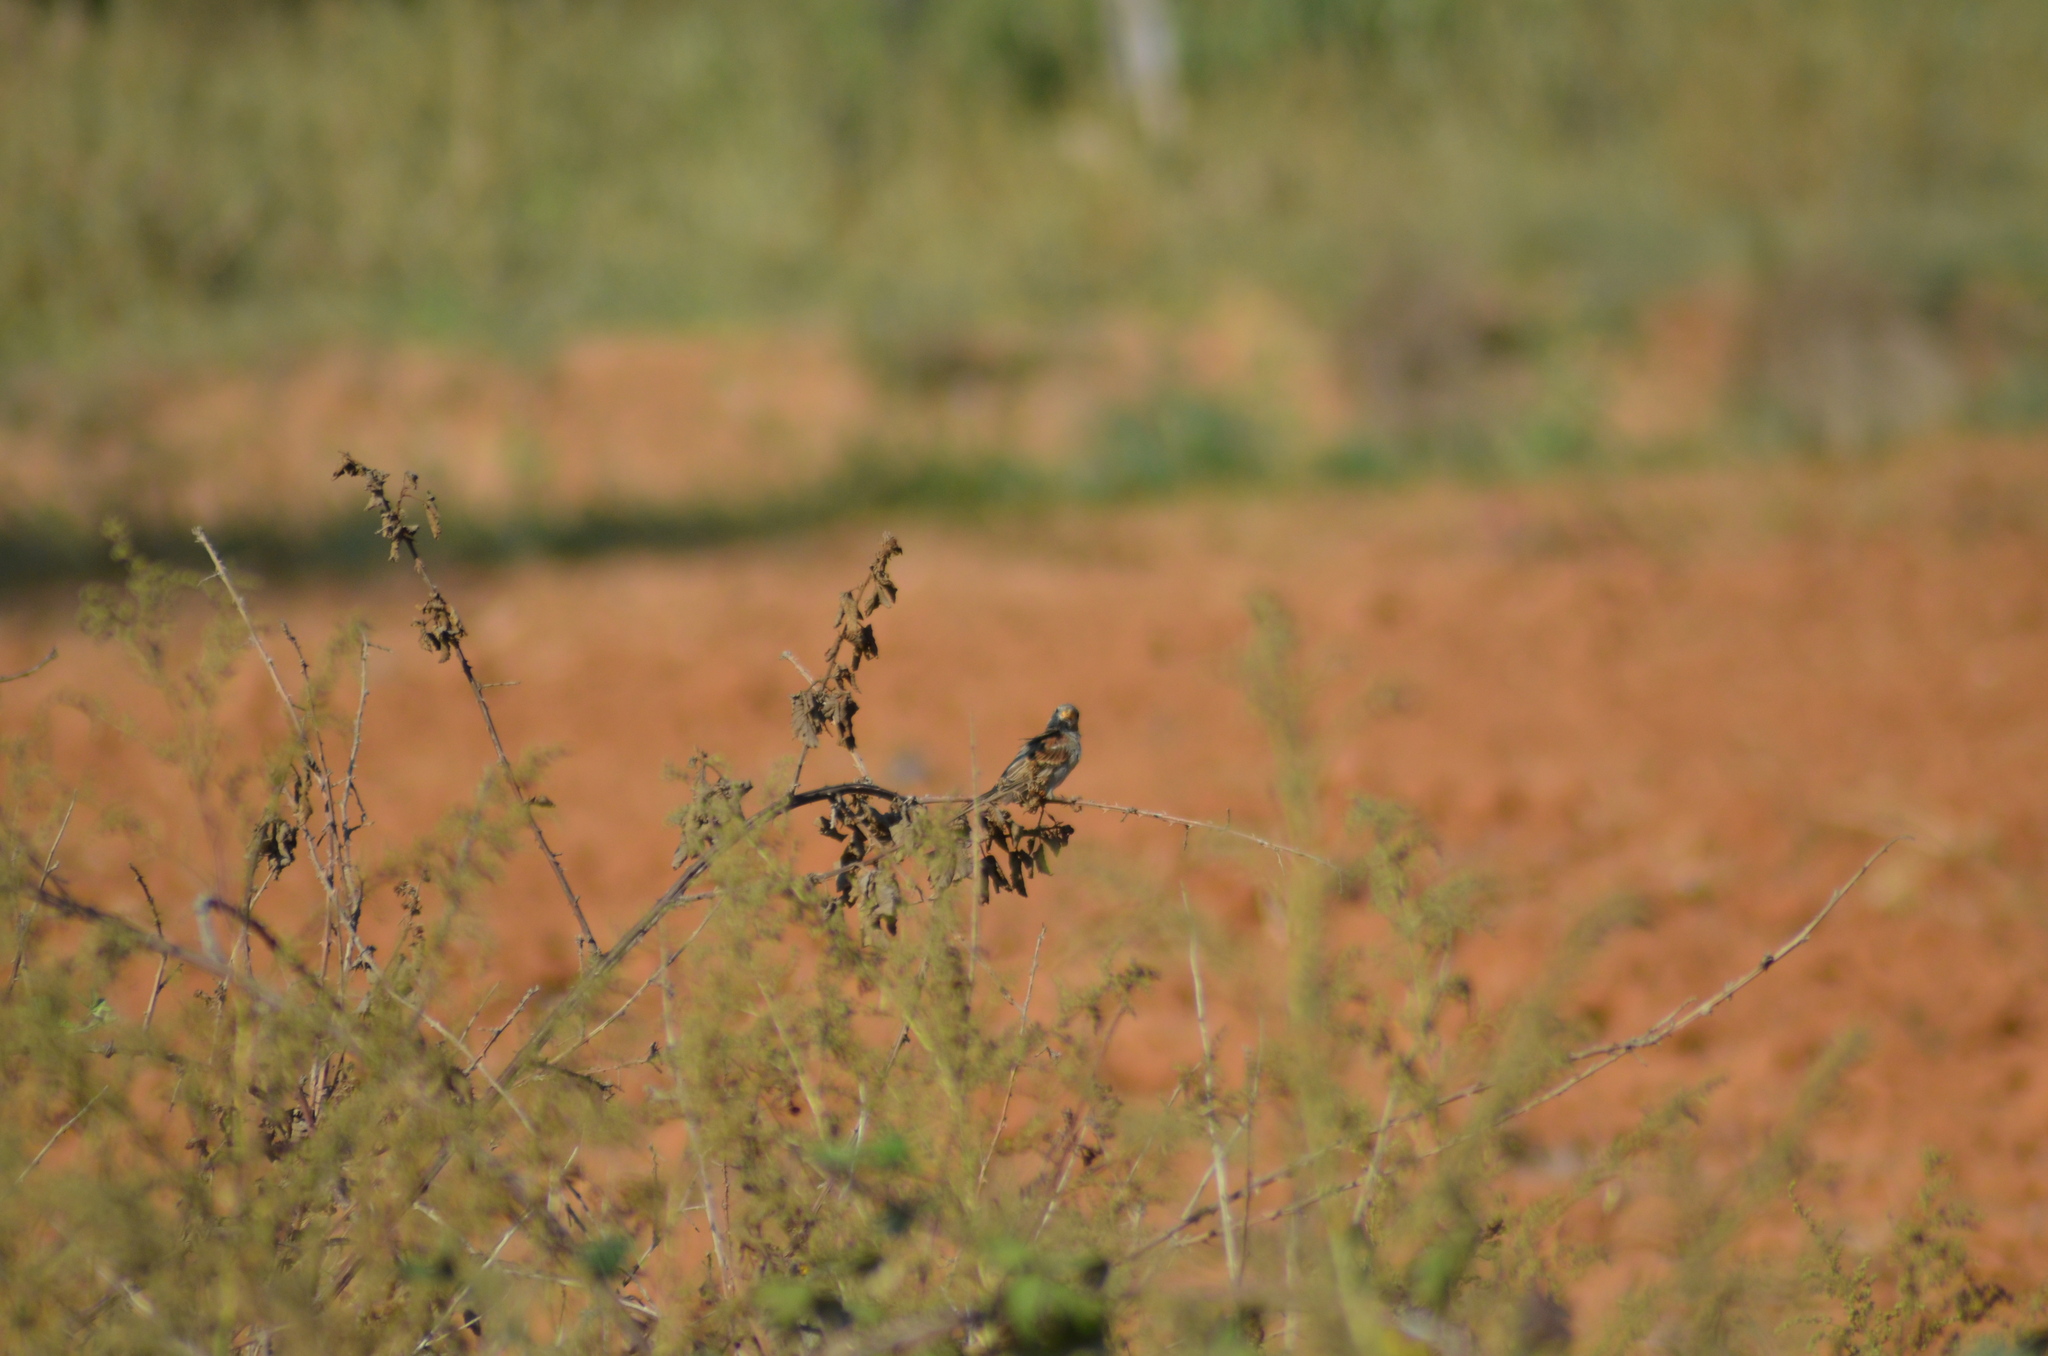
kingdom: Animalia
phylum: Chordata
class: Aves
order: Passeriformes
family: Passeridae
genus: Passer
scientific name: Passer domesticus
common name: House sparrow
